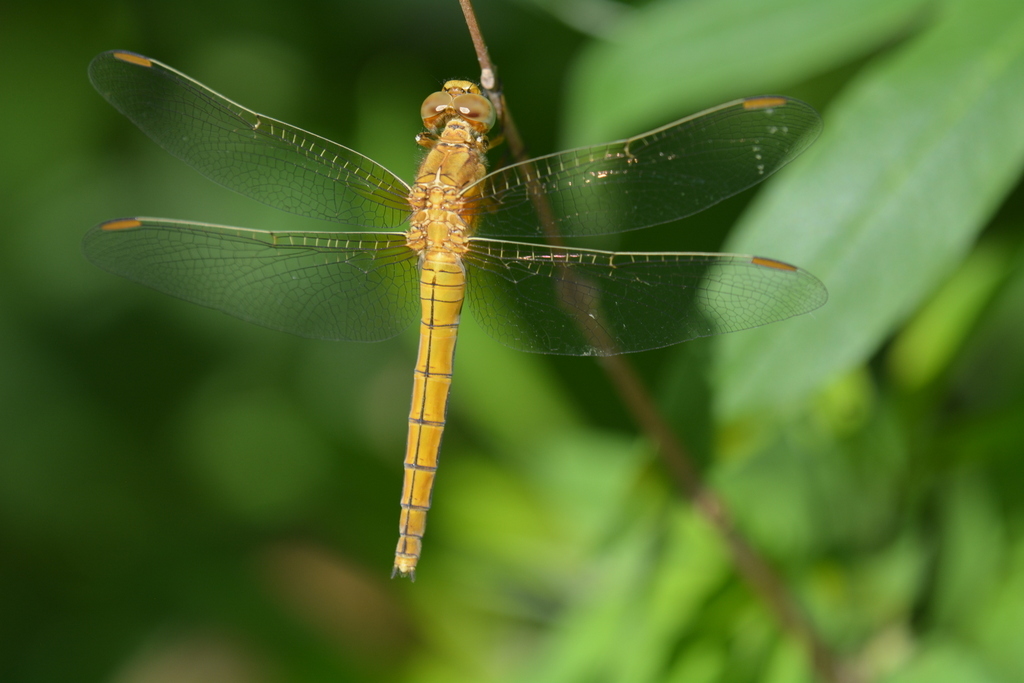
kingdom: Animalia
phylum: Arthropoda
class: Insecta
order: Odonata
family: Libellulidae
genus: Orthetrum
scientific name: Orthetrum coerulescens
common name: Keeled skimmer
